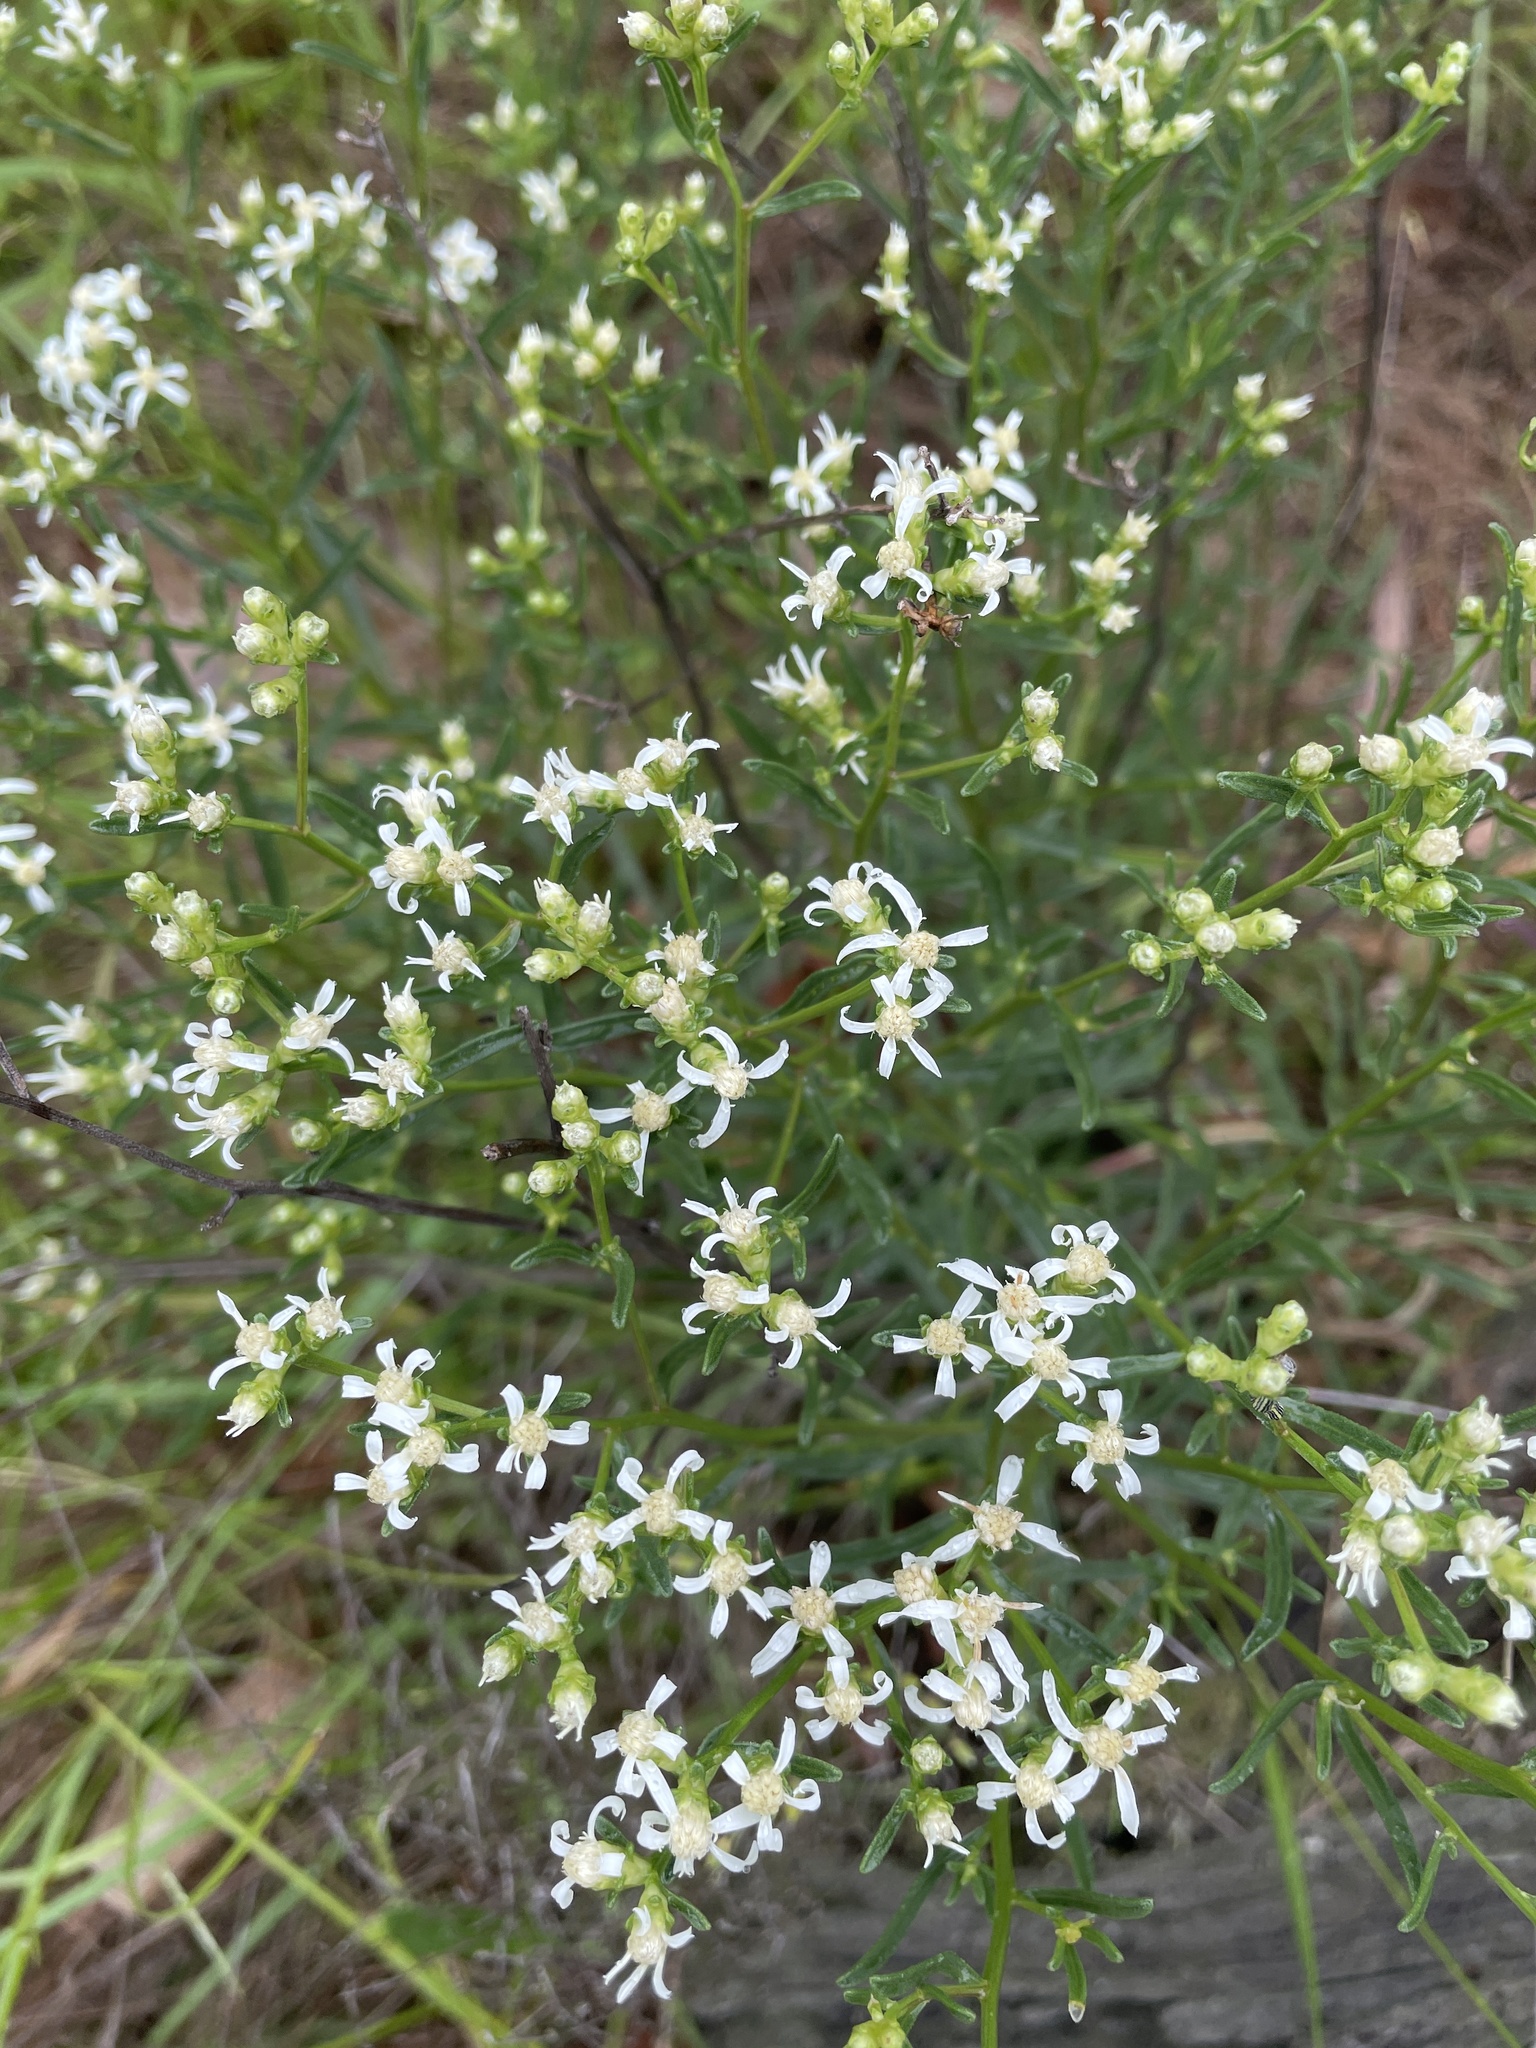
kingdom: Plantae
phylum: Tracheophyta
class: Magnoliopsida
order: Asterales
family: Asteraceae
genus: Sericocarpus
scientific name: Sericocarpus linifolius
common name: Narrow-leaf aster
